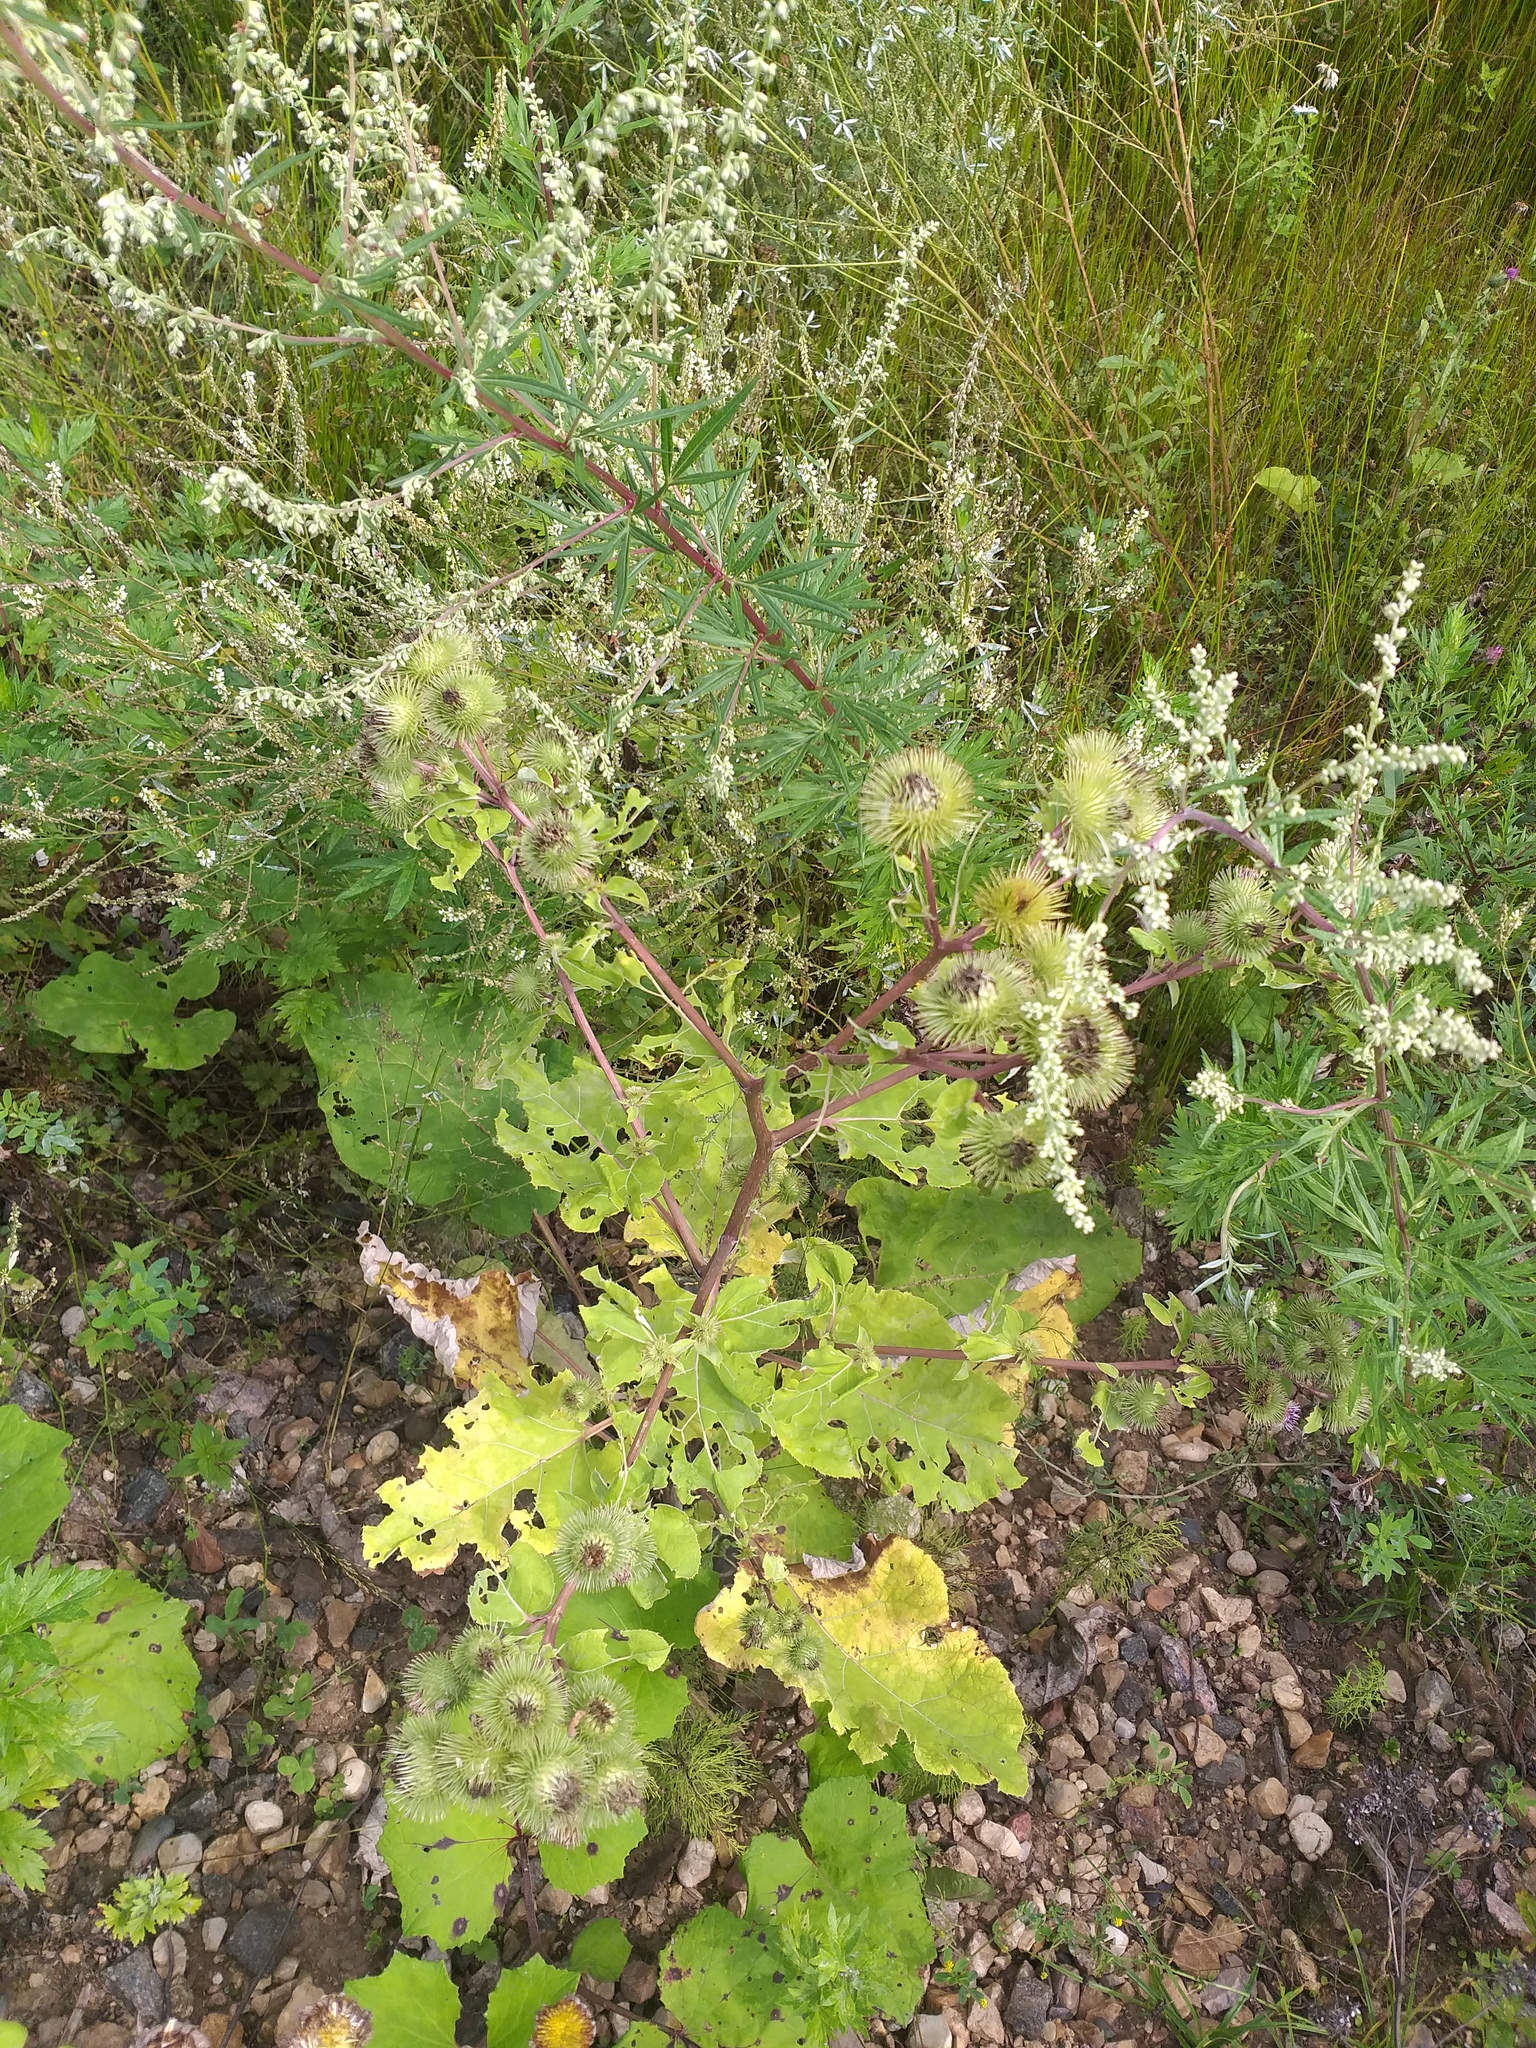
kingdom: Plantae
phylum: Tracheophyta
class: Magnoliopsida
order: Asterales
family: Asteraceae
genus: Arctium
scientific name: Arctium lappa
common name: Greater burdock
